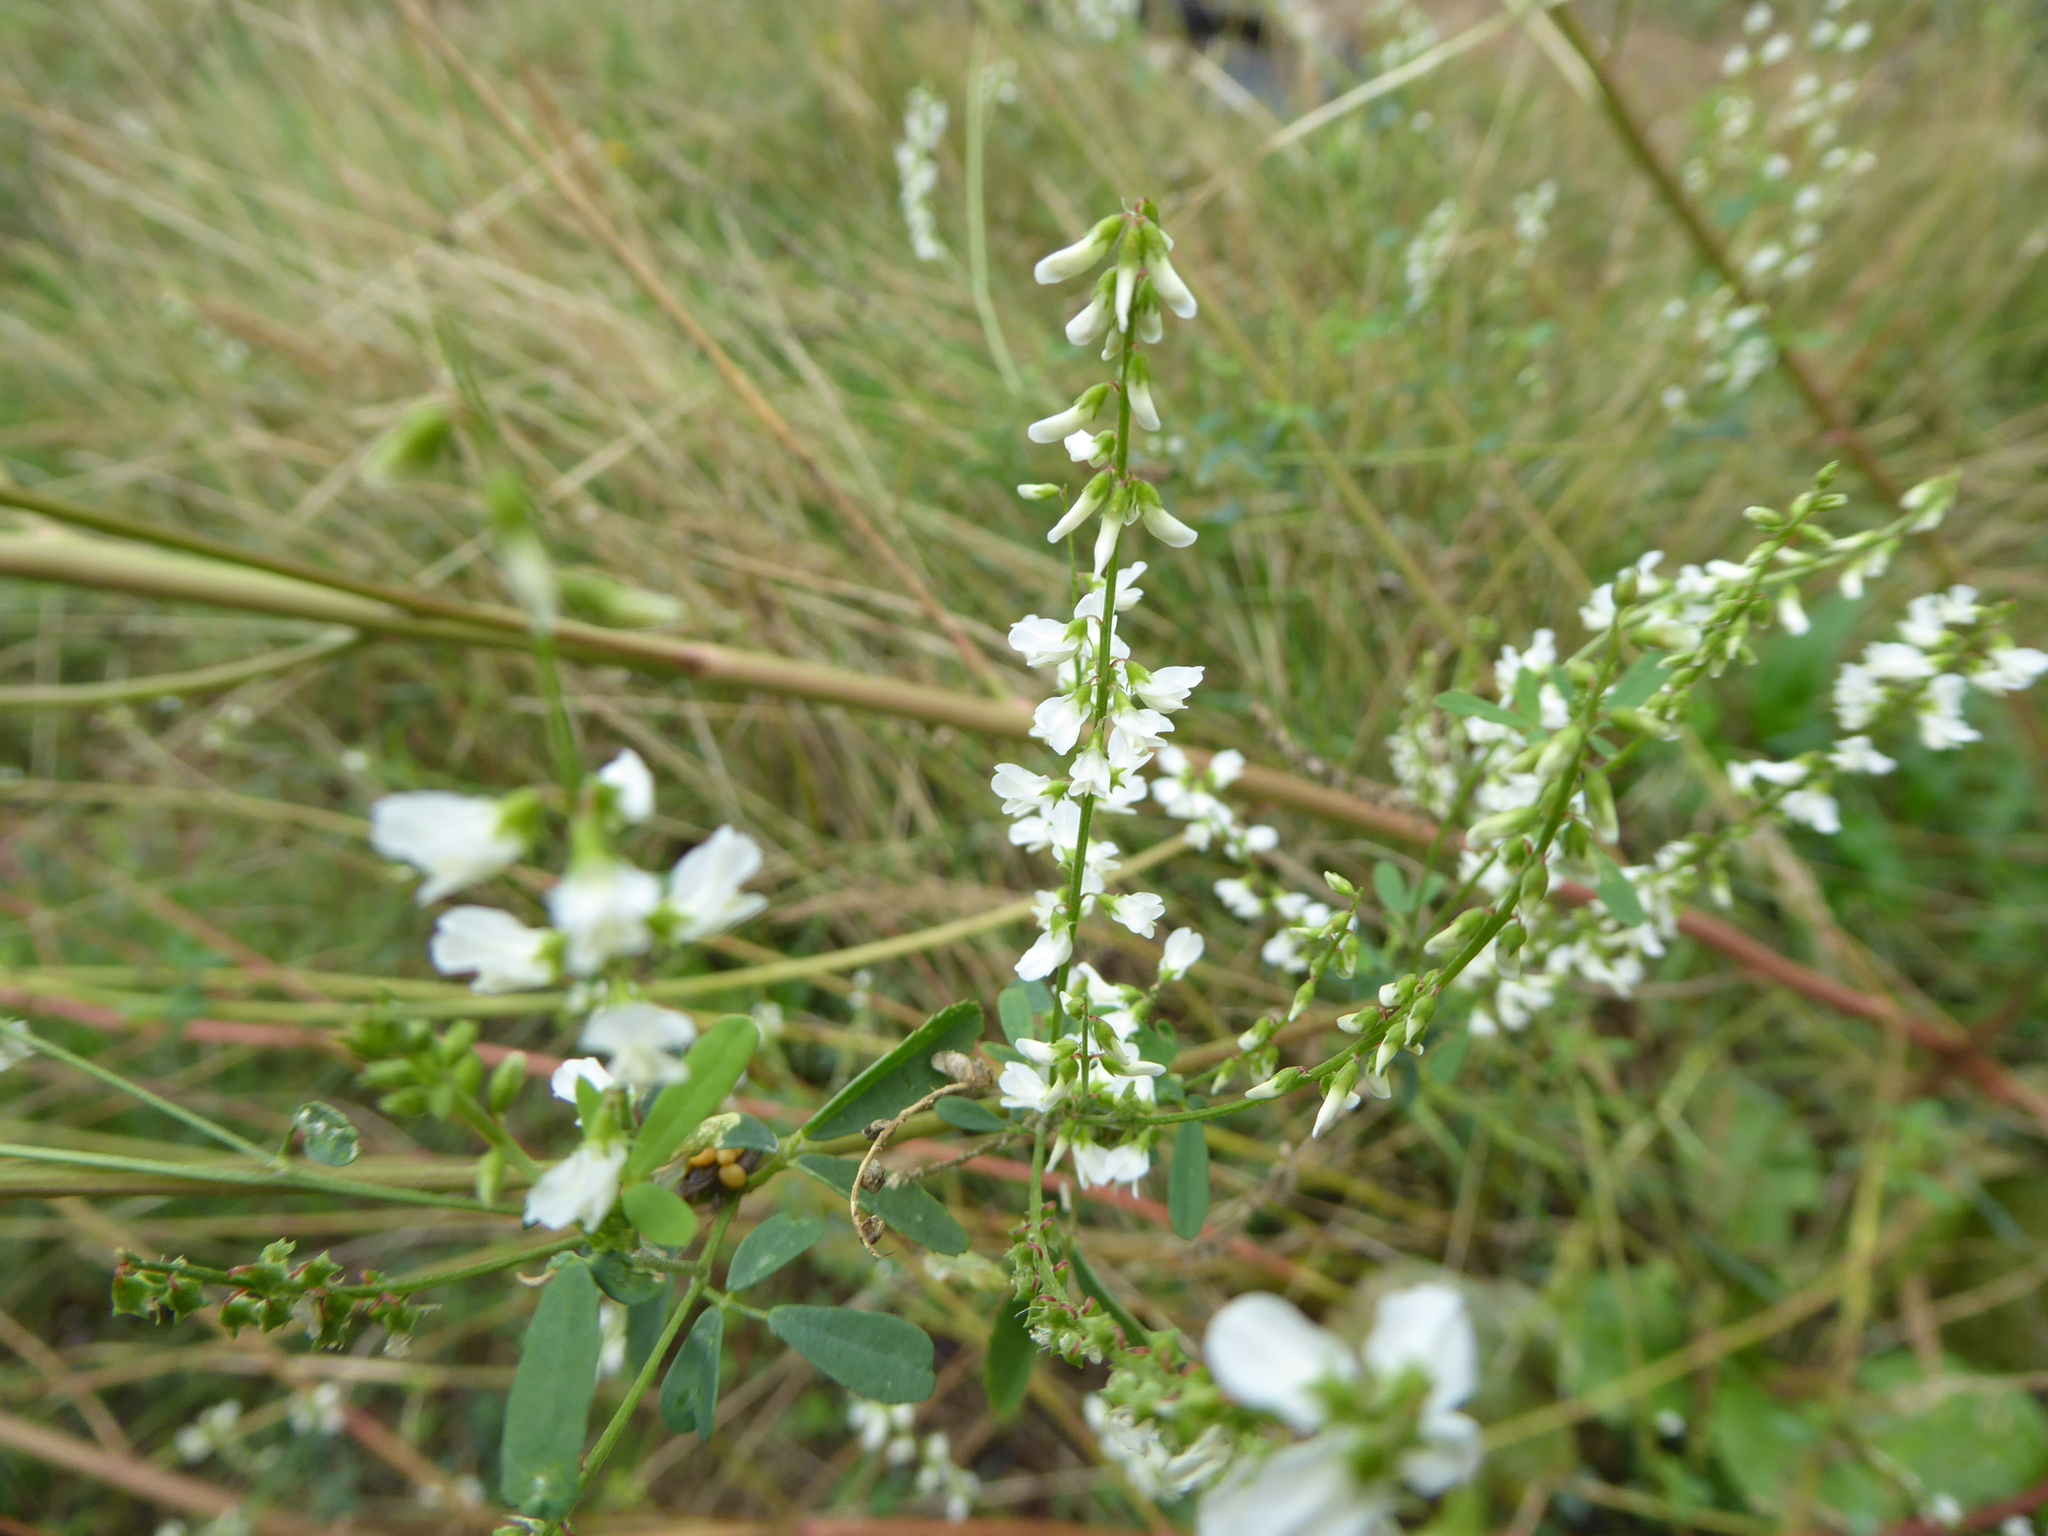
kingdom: Plantae
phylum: Tracheophyta
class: Magnoliopsida
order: Fabales
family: Fabaceae
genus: Melilotus
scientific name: Melilotus albus
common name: White melilot
